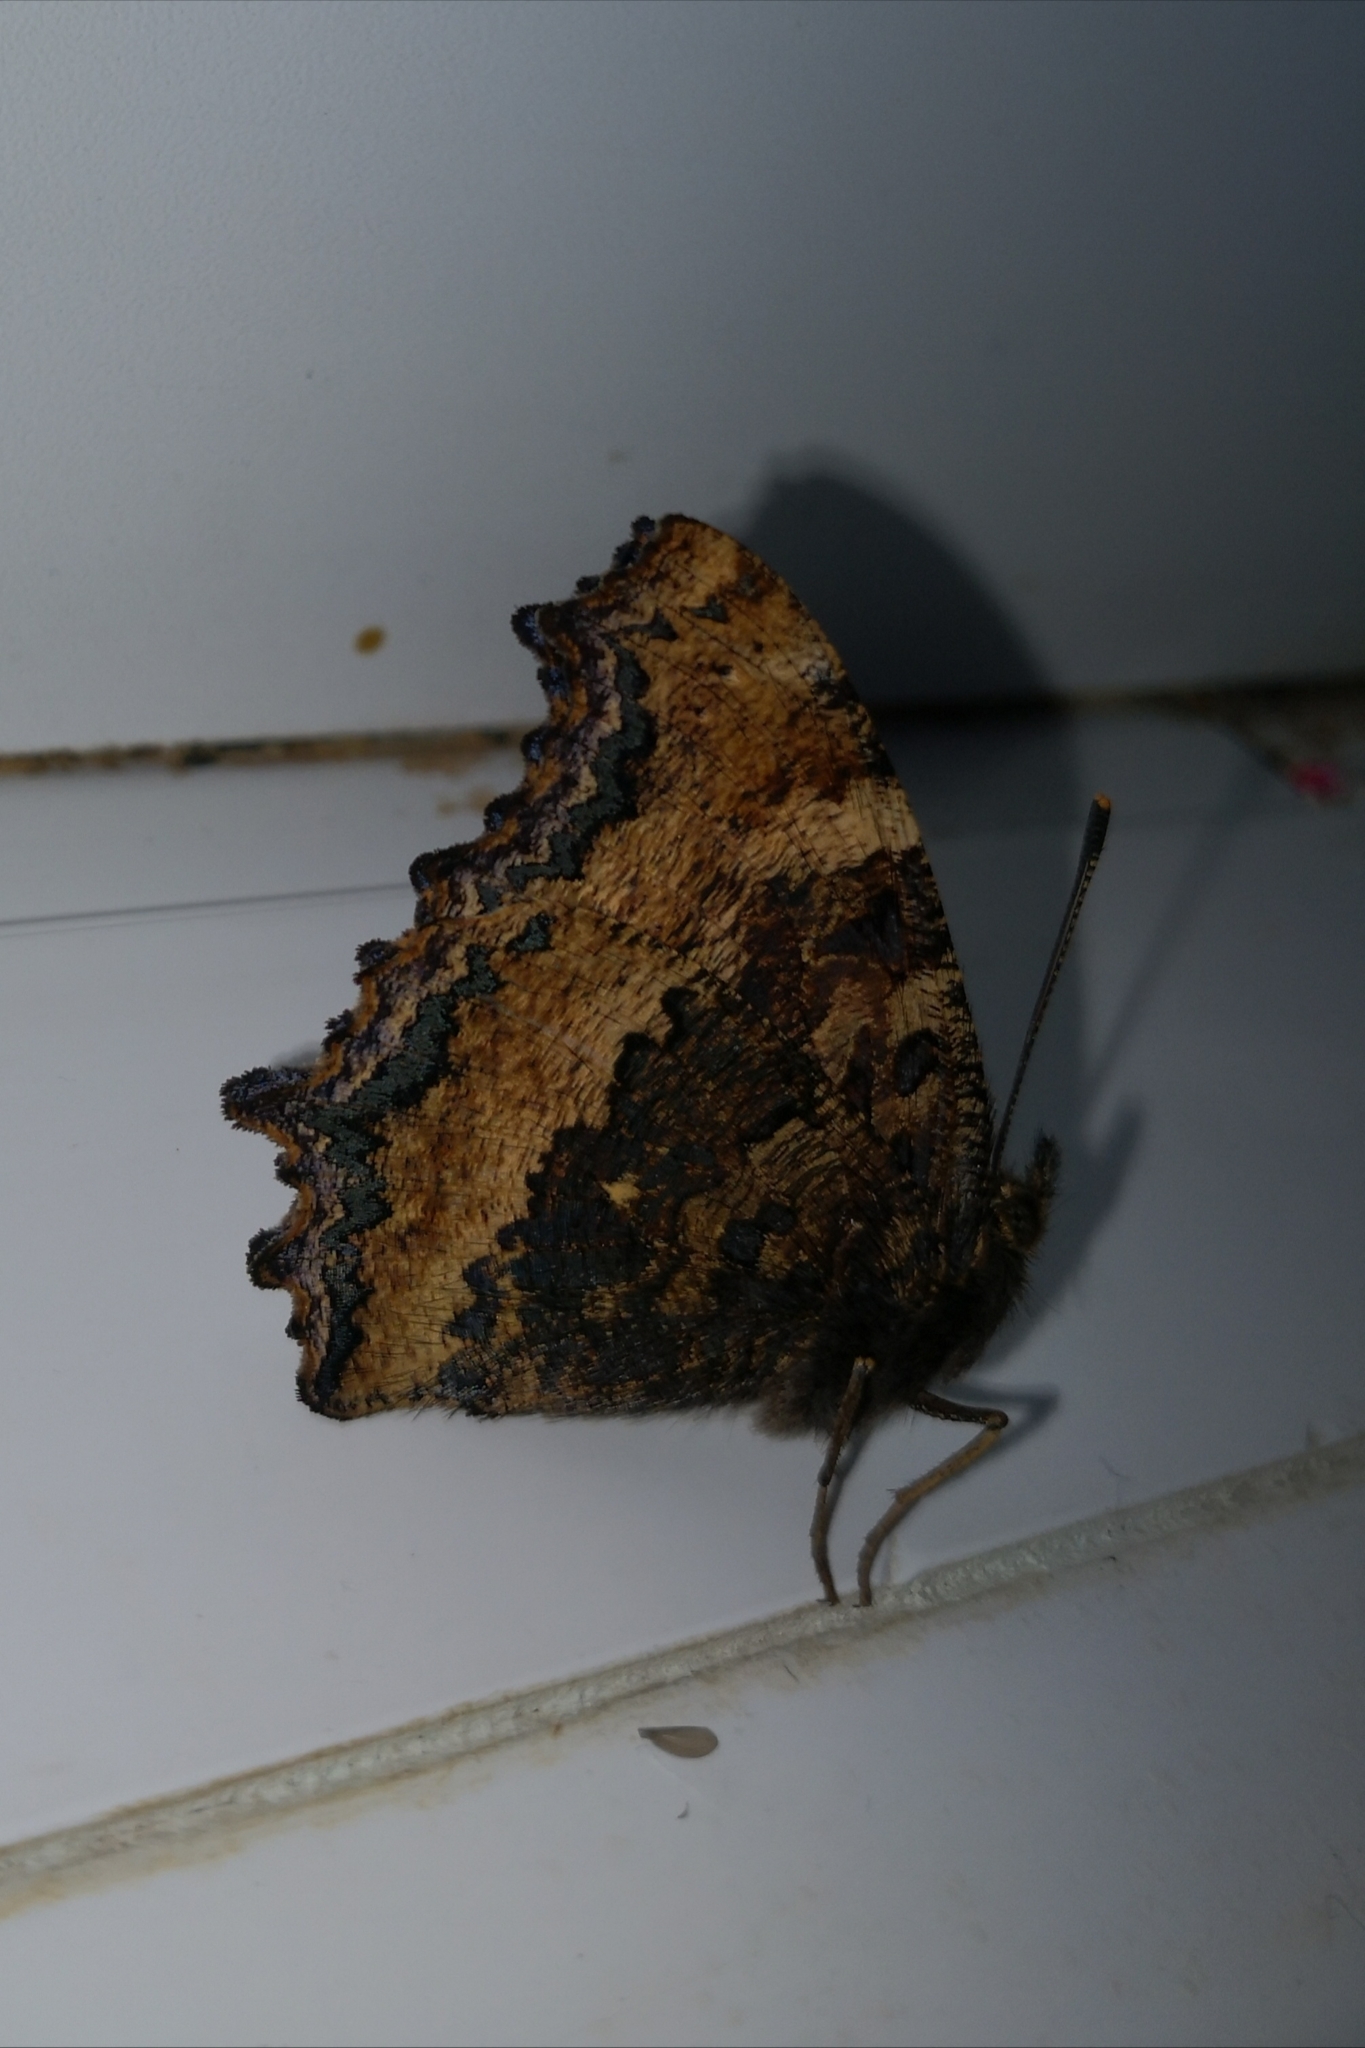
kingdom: Animalia
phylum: Arthropoda
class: Insecta
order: Lepidoptera
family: Nymphalidae
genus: Nymphalis
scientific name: Nymphalis xanthomelas
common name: Scarce tortoiseshell
